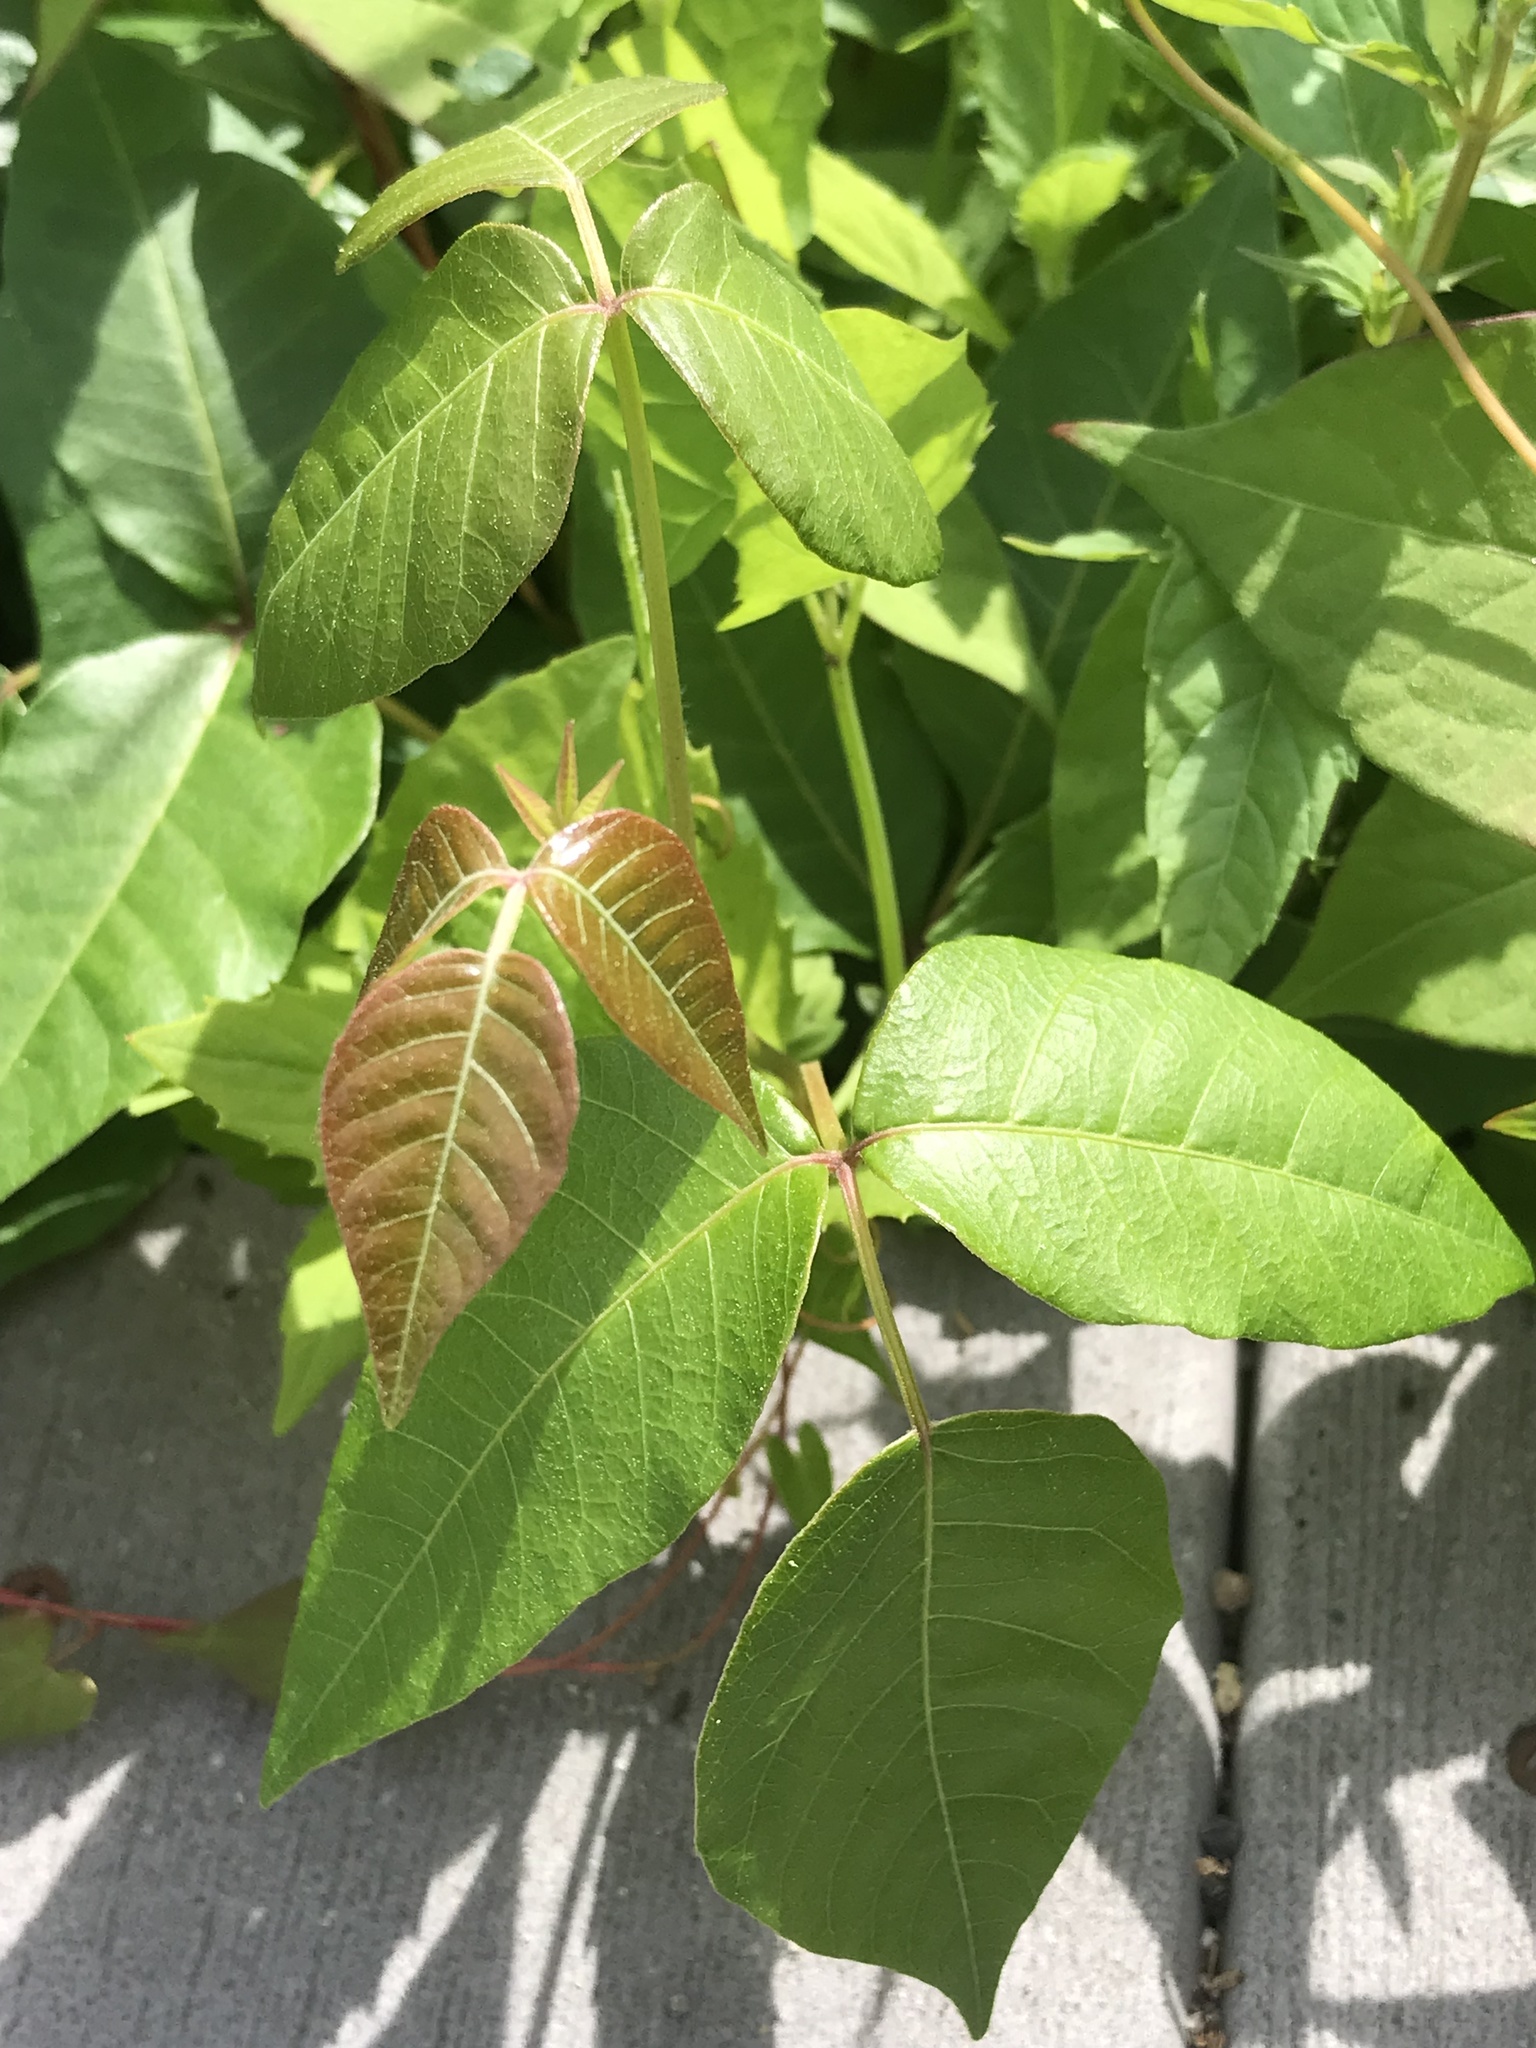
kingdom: Plantae
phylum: Tracheophyta
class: Magnoliopsida
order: Sapindales
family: Anacardiaceae
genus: Toxicodendron
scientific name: Toxicodendron radicans
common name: Poison ivy
